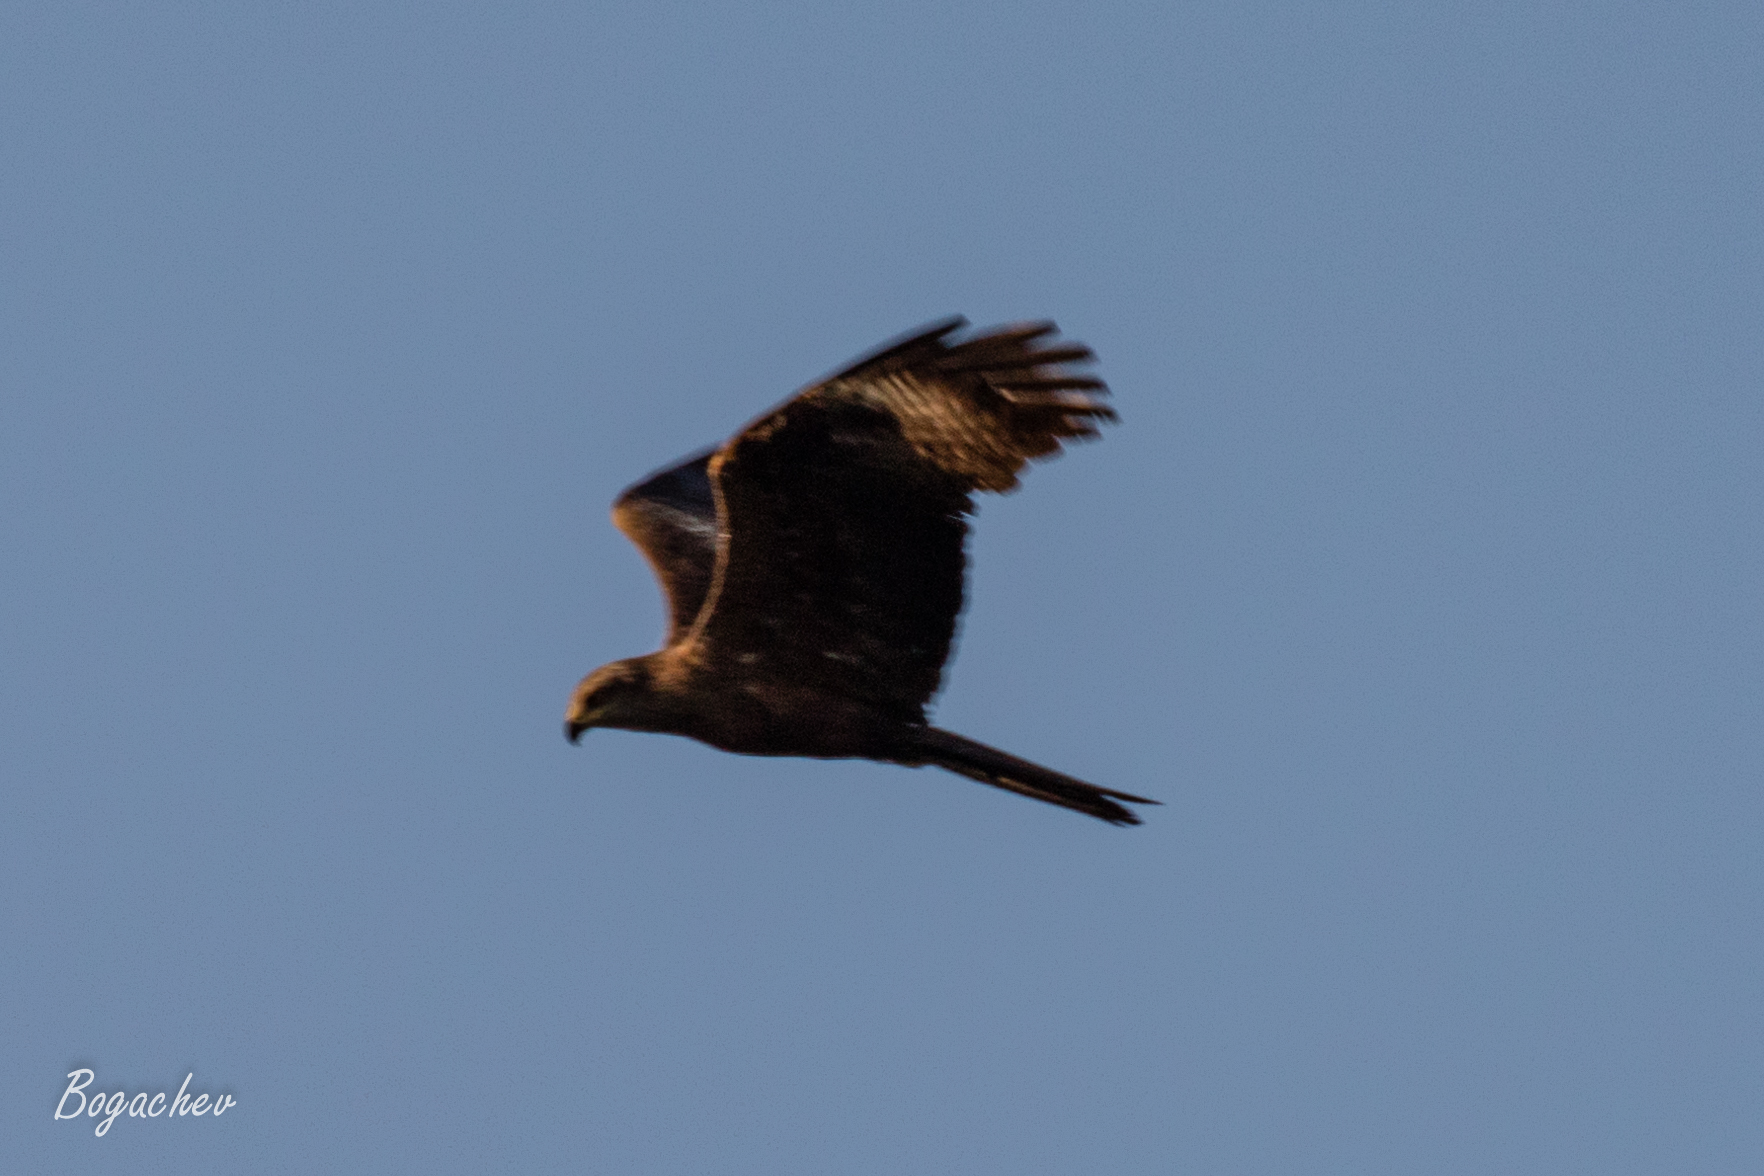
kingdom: Animalia
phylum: Chordata
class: Aves
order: Accipitriformes
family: Accipitridae
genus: Milvus
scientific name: Milvus migrans
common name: Black kite
